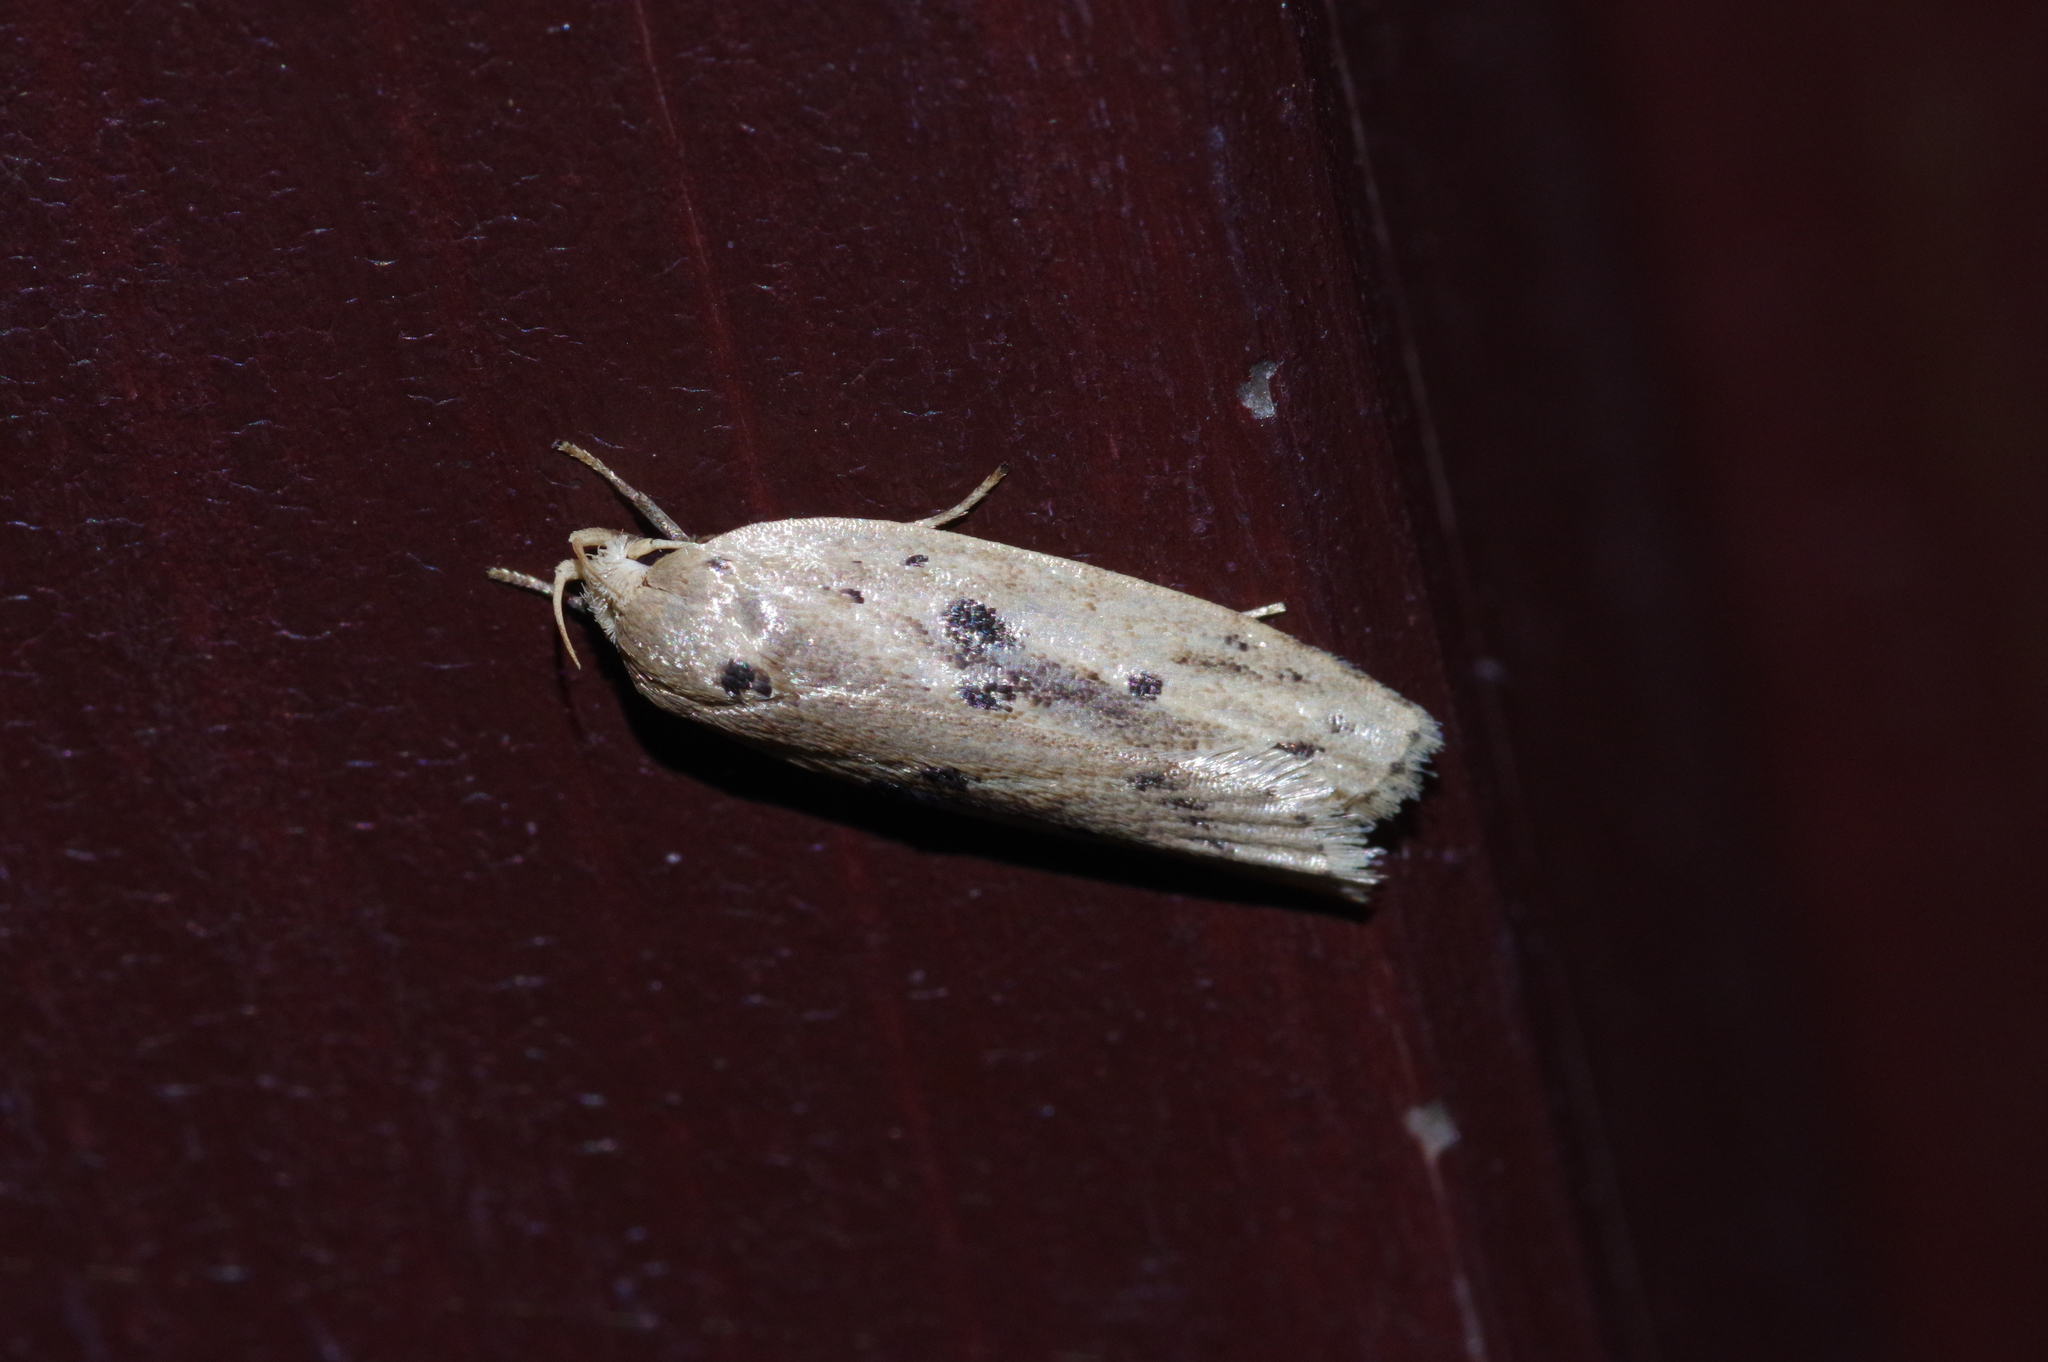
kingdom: Animalia
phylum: Arthropoda
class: Insecta
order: Lepidoptera
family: Peleopodidae
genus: Scythropiodes
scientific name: Scythropiodes issikii
